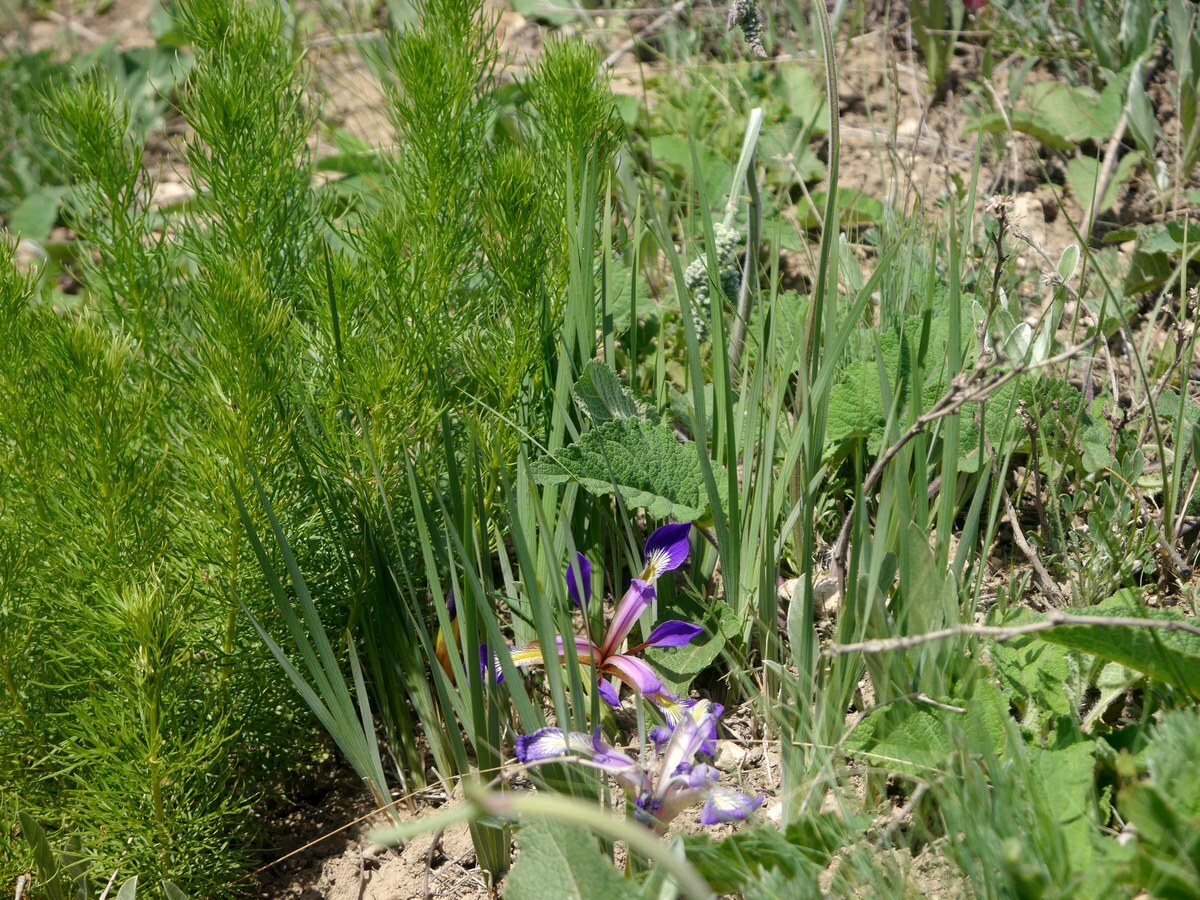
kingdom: Plantae
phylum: Tracheophyta
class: Liliopsida
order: Asparagales
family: Iridaceae
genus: Iris
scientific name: Iris pontica
